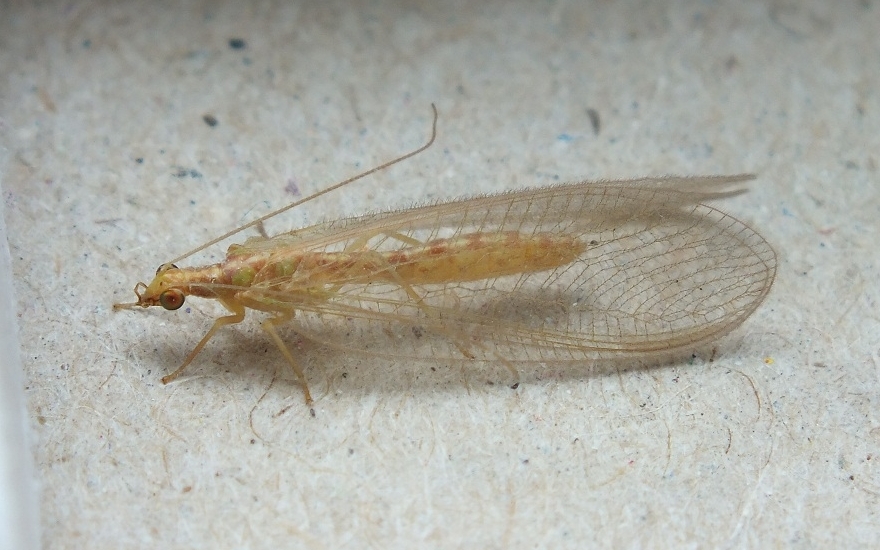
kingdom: Animalia
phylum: Arthropoda
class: Insecta
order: Neuroptera
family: Chrysopidae
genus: Chrysoperla
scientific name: Chrysoperla
